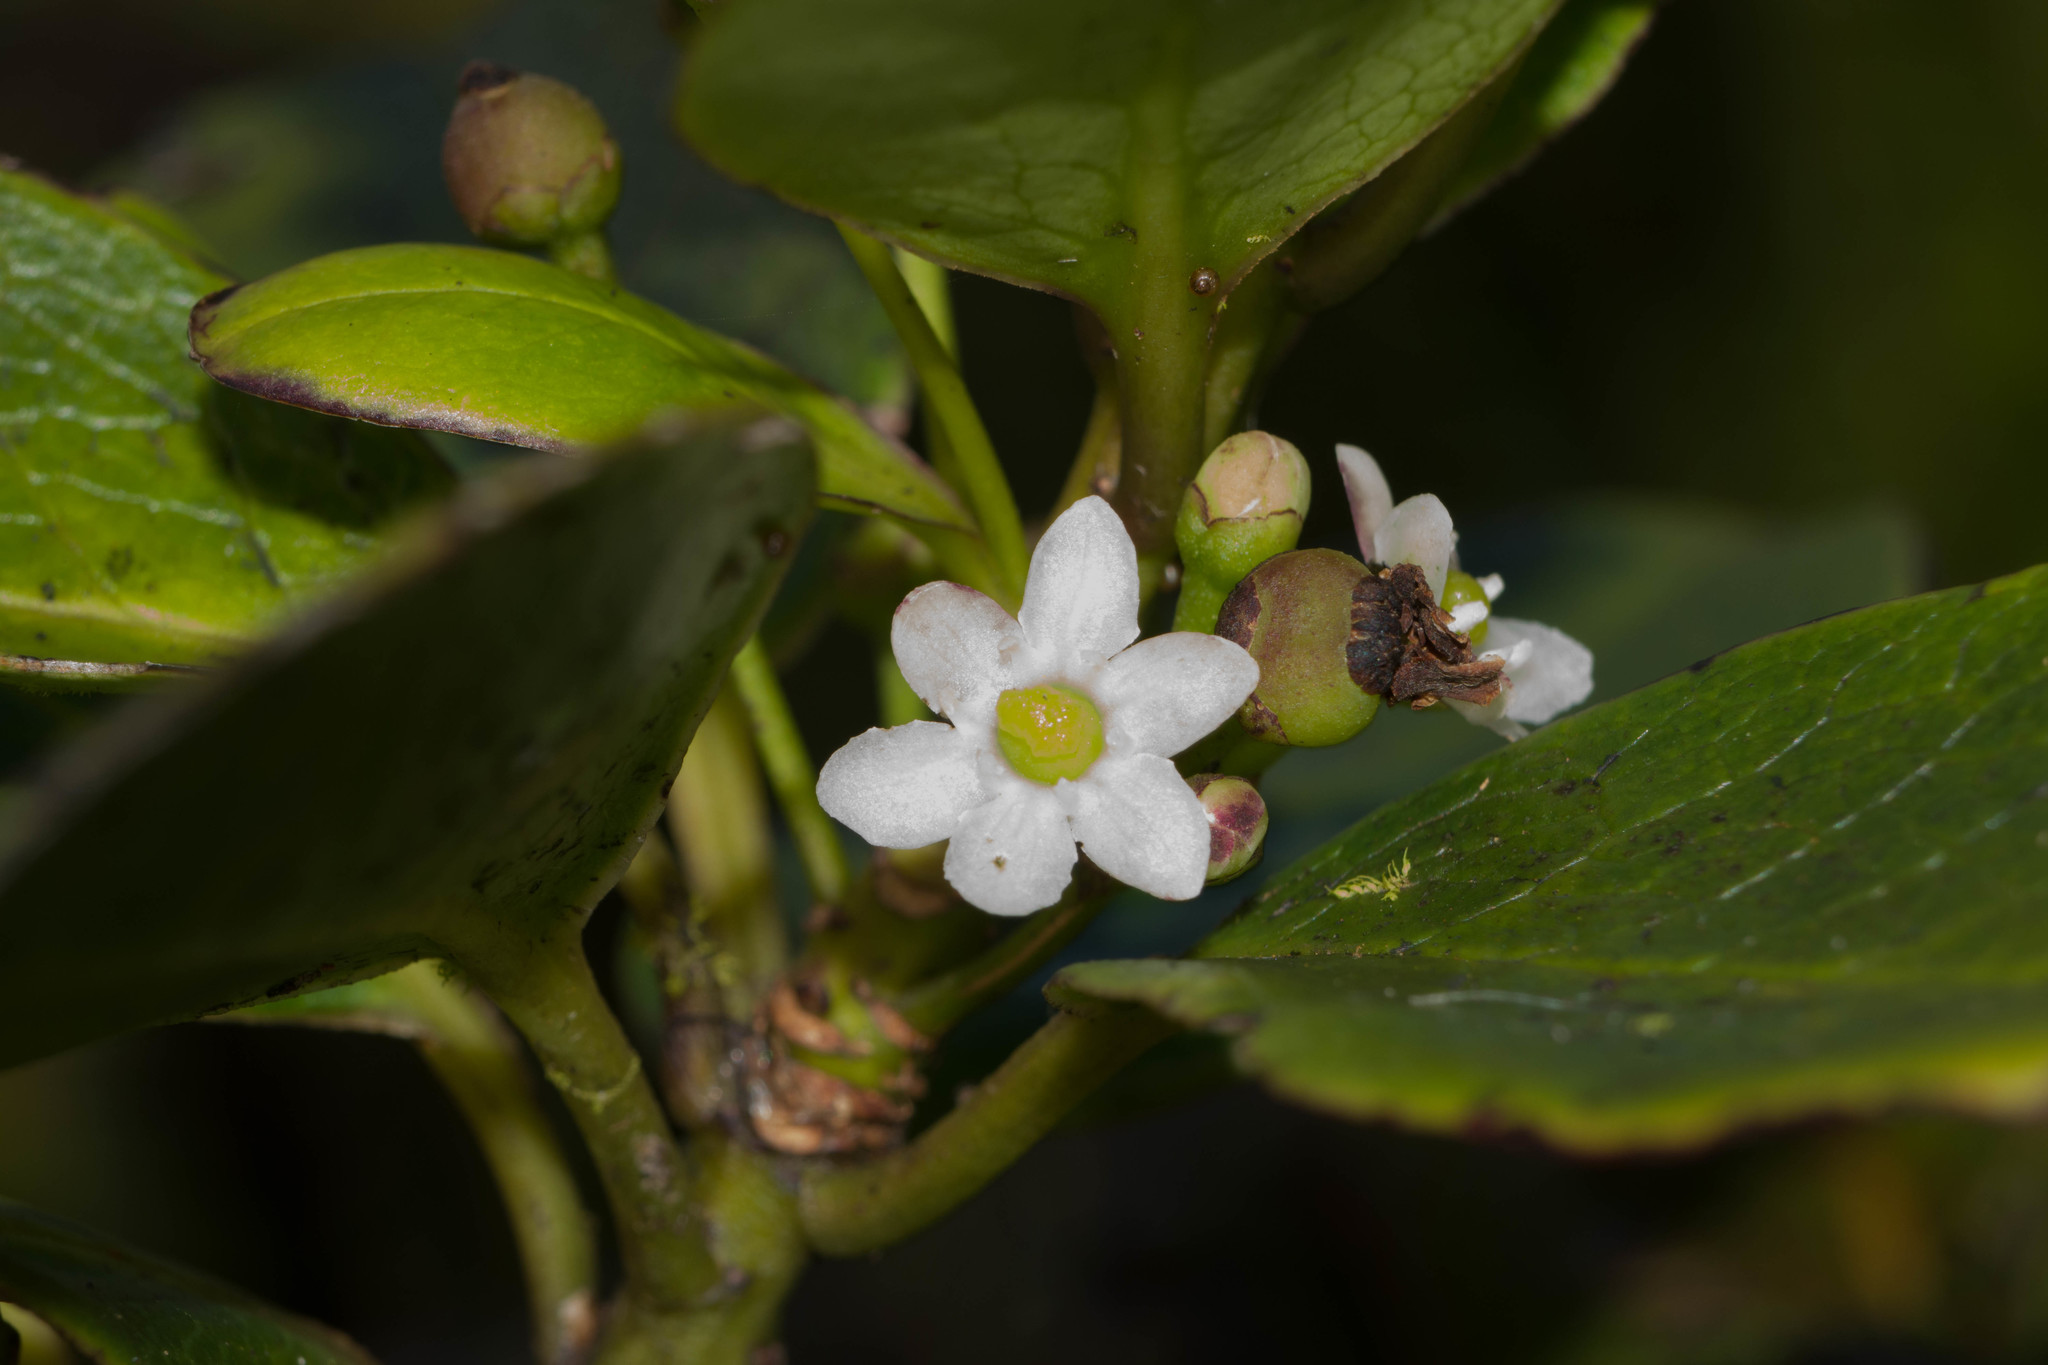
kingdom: Plantae
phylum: Tracheophyta
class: Magnoliopsida
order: Aquifoliales
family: Aquifoliaceae
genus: Ilex
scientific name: Ilex anomala
